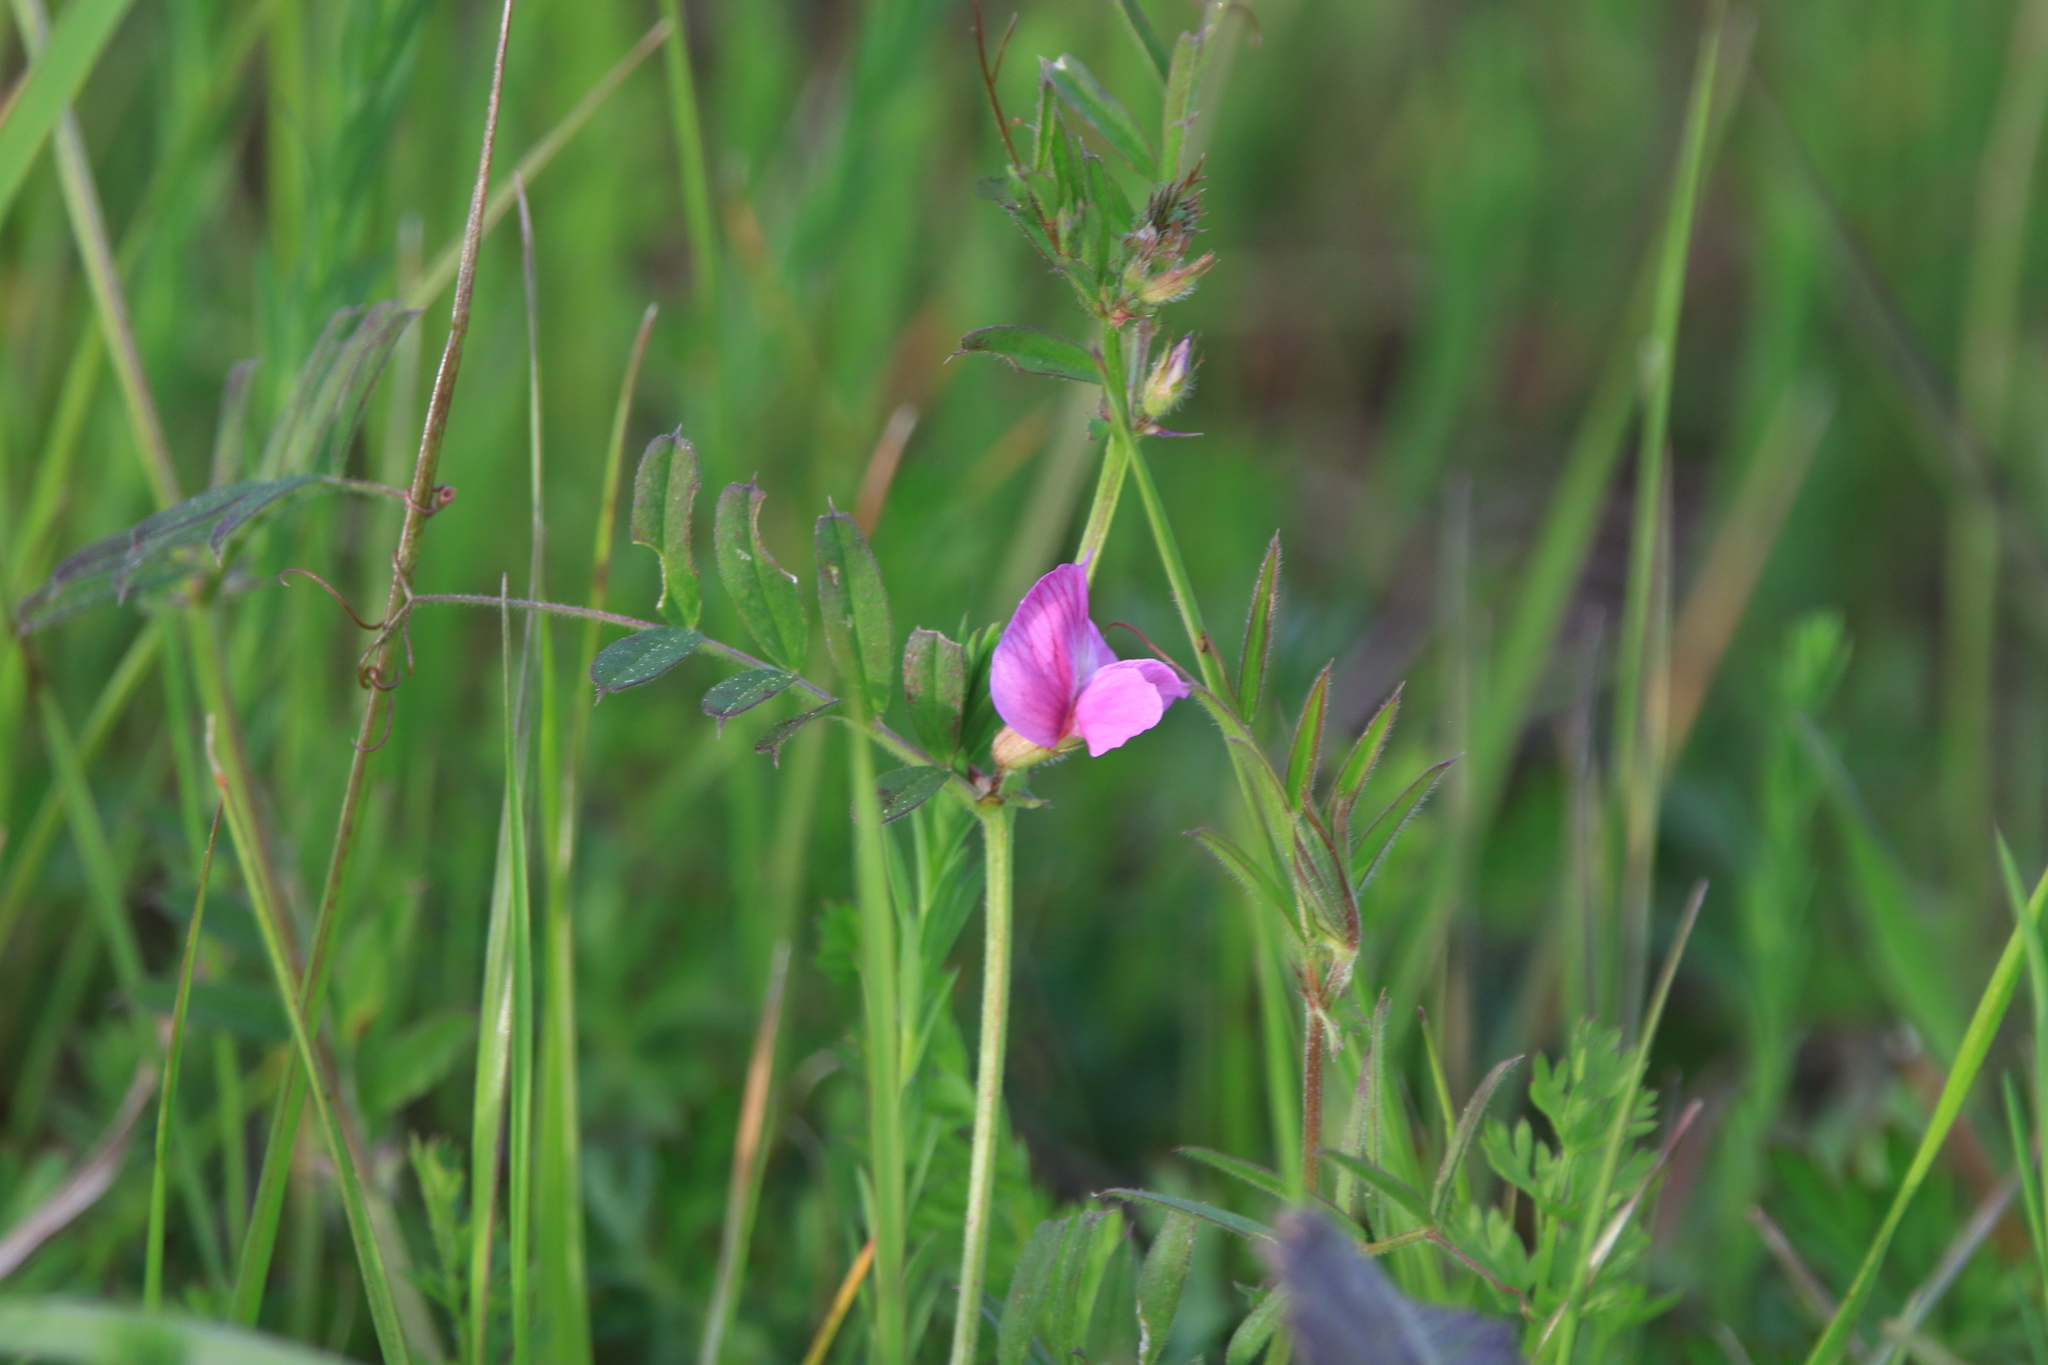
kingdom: Plantae
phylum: Tracheophyta
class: Magnoliopsida
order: Fabales
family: Fabaceae
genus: Vicia
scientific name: Vicia sativa
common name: Garden vetch
